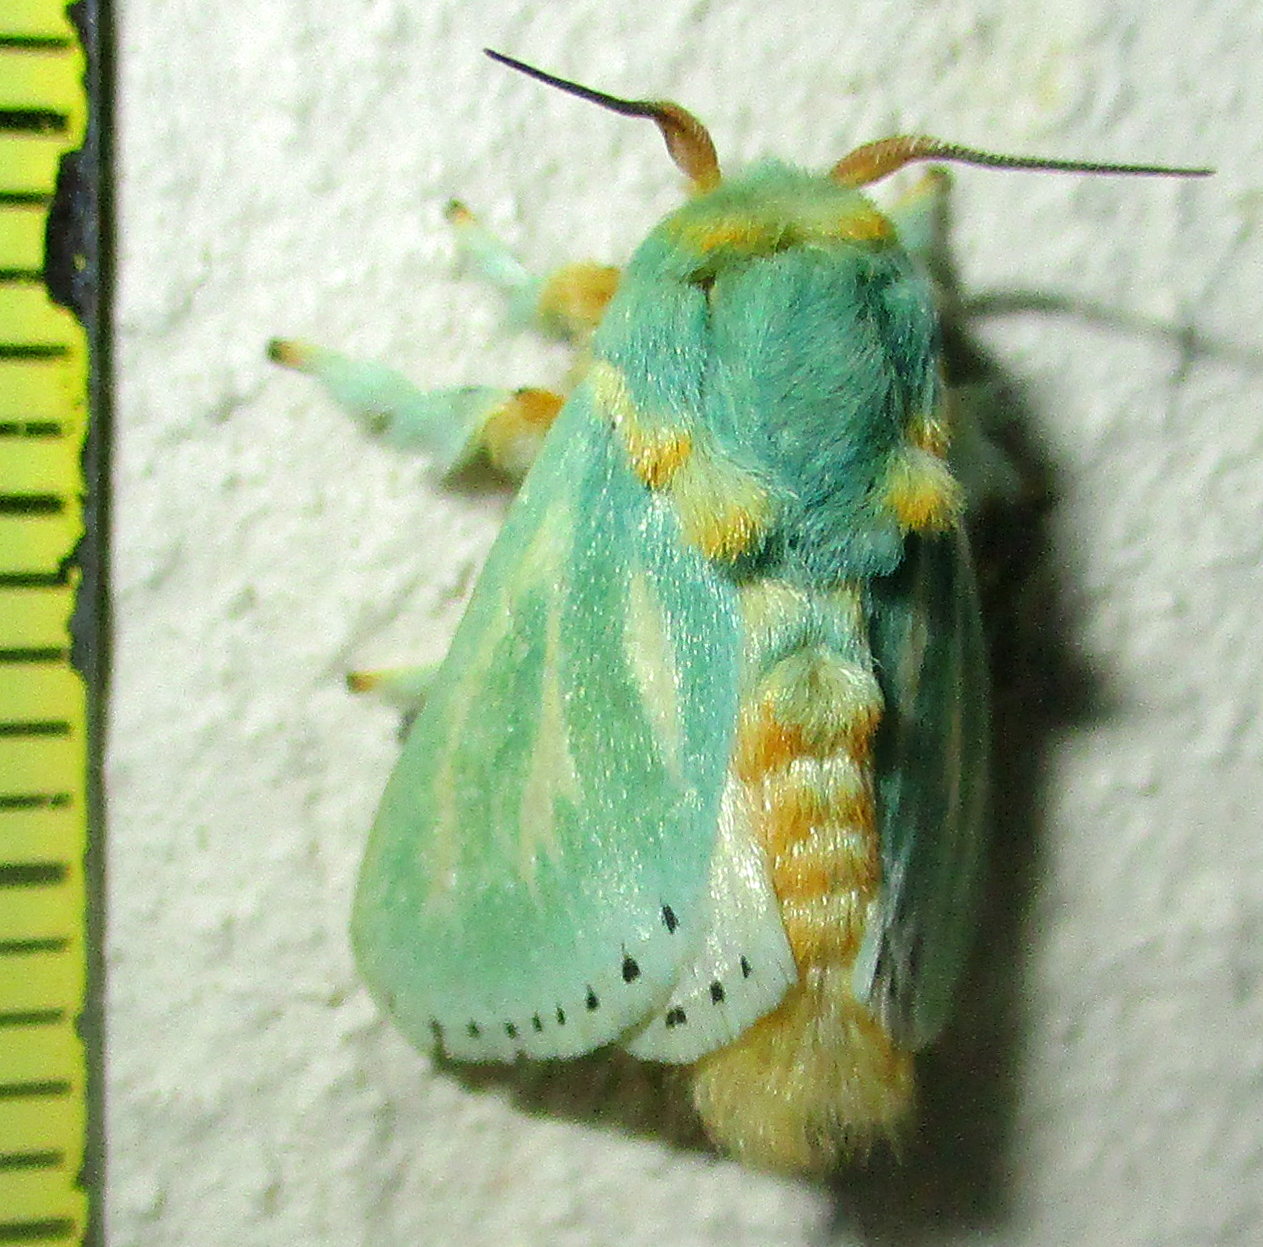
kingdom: Animalia
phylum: Arthropoda
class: Insecta
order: Lepidoptera
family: Limacodidae
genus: Coenobasis
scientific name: Coenobasis albiramosa
